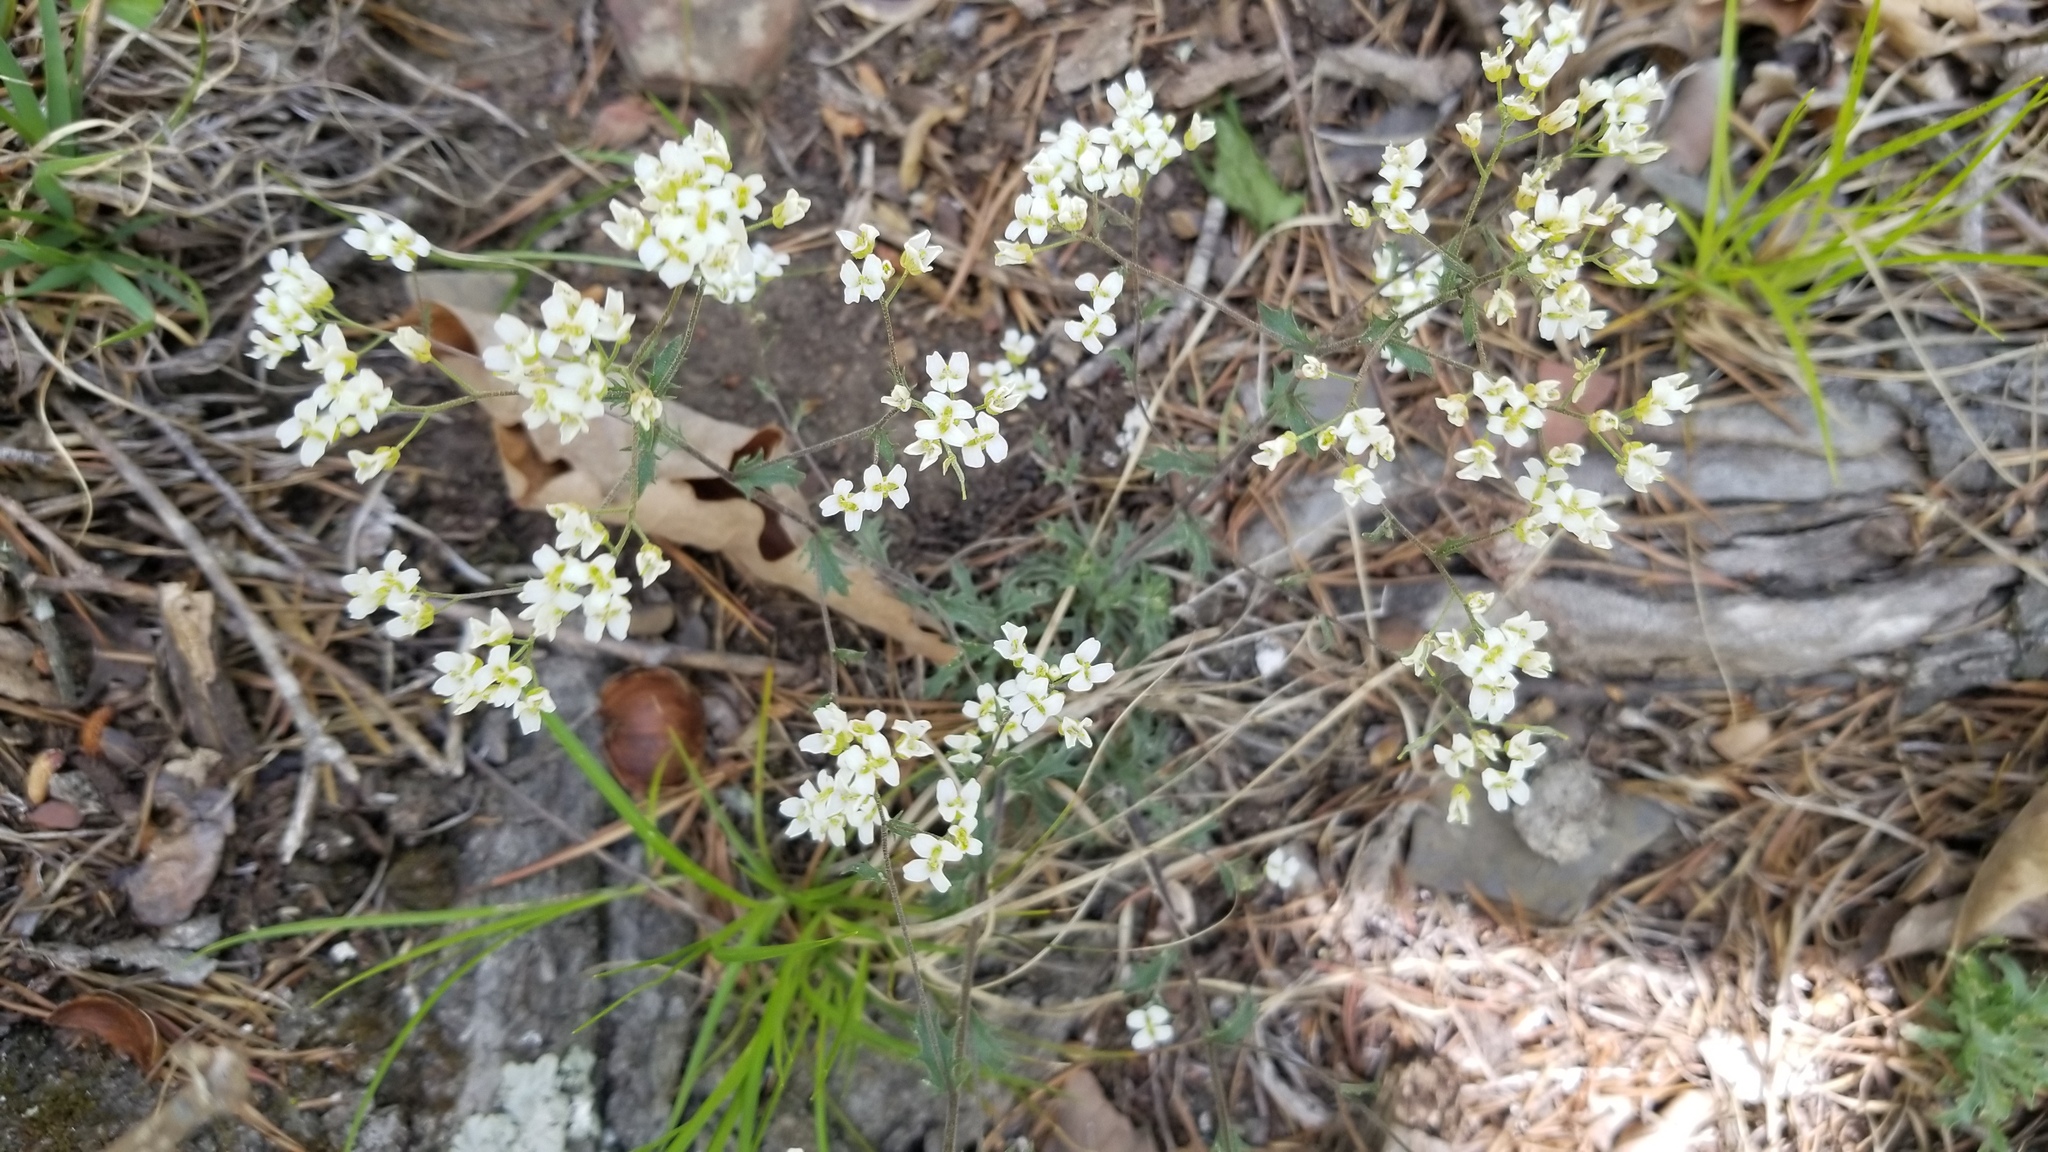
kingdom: Plantae
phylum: Tracheophyta
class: Magnoliopsida
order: Brassicales
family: Brassicaceae
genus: Draba
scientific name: Draba ramosissima
